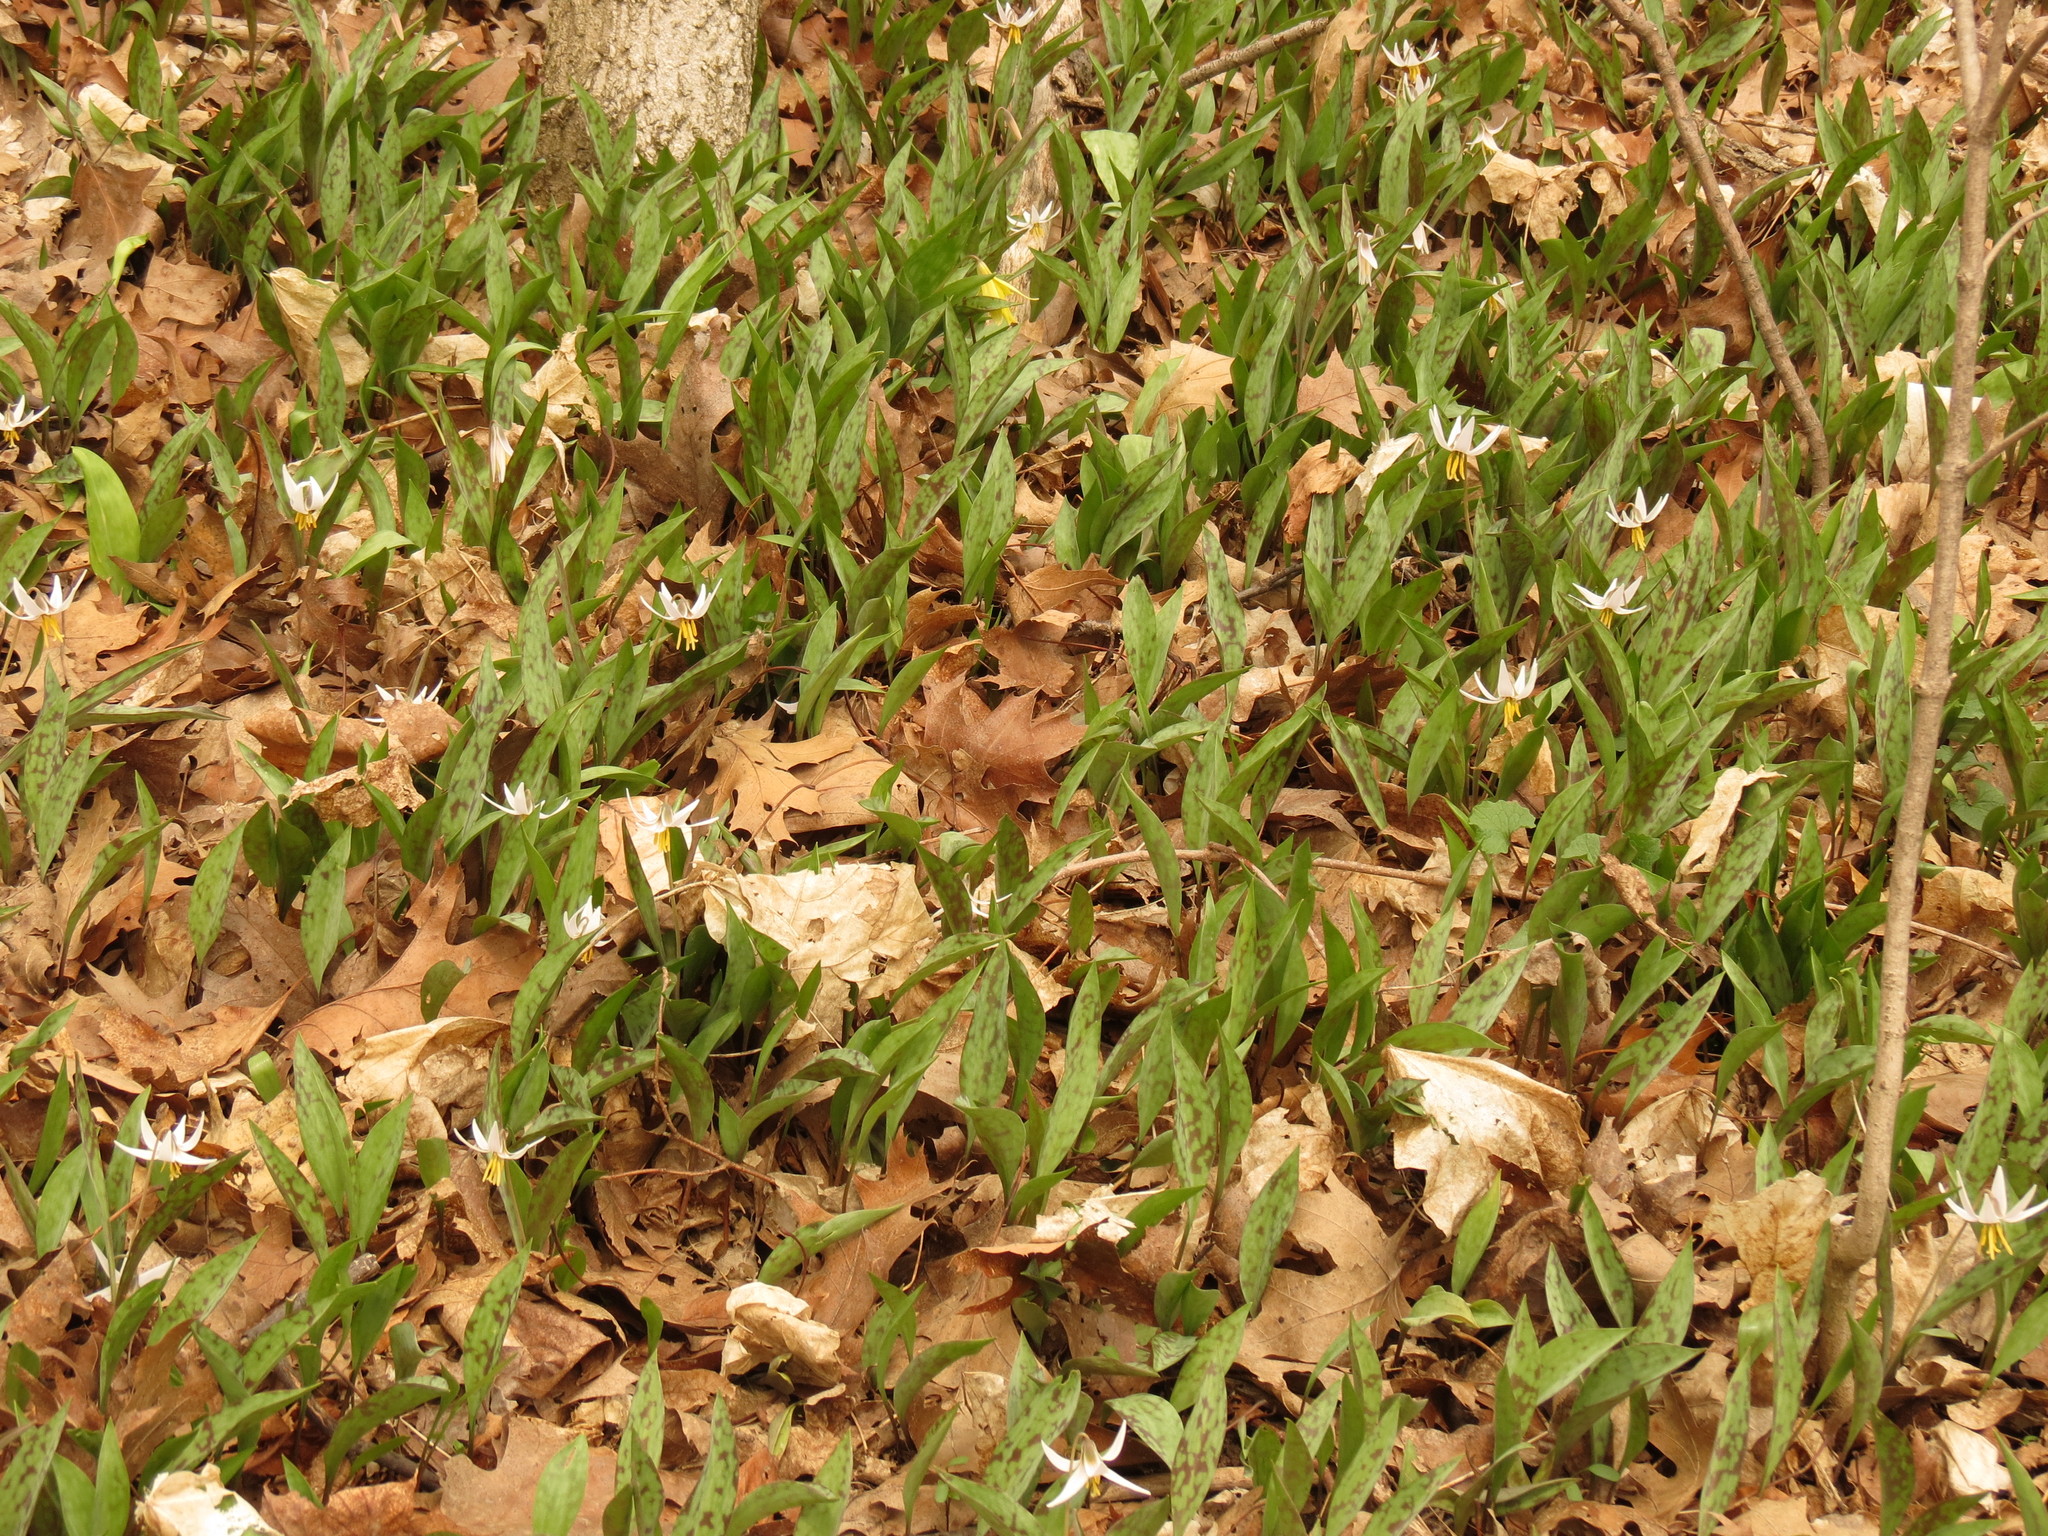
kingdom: Plantae
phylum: Tracheophyta
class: Liliopsida
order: Liliales
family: Liliaceae
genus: Erythronium
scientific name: Erythronium albidum
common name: White trout-lily
